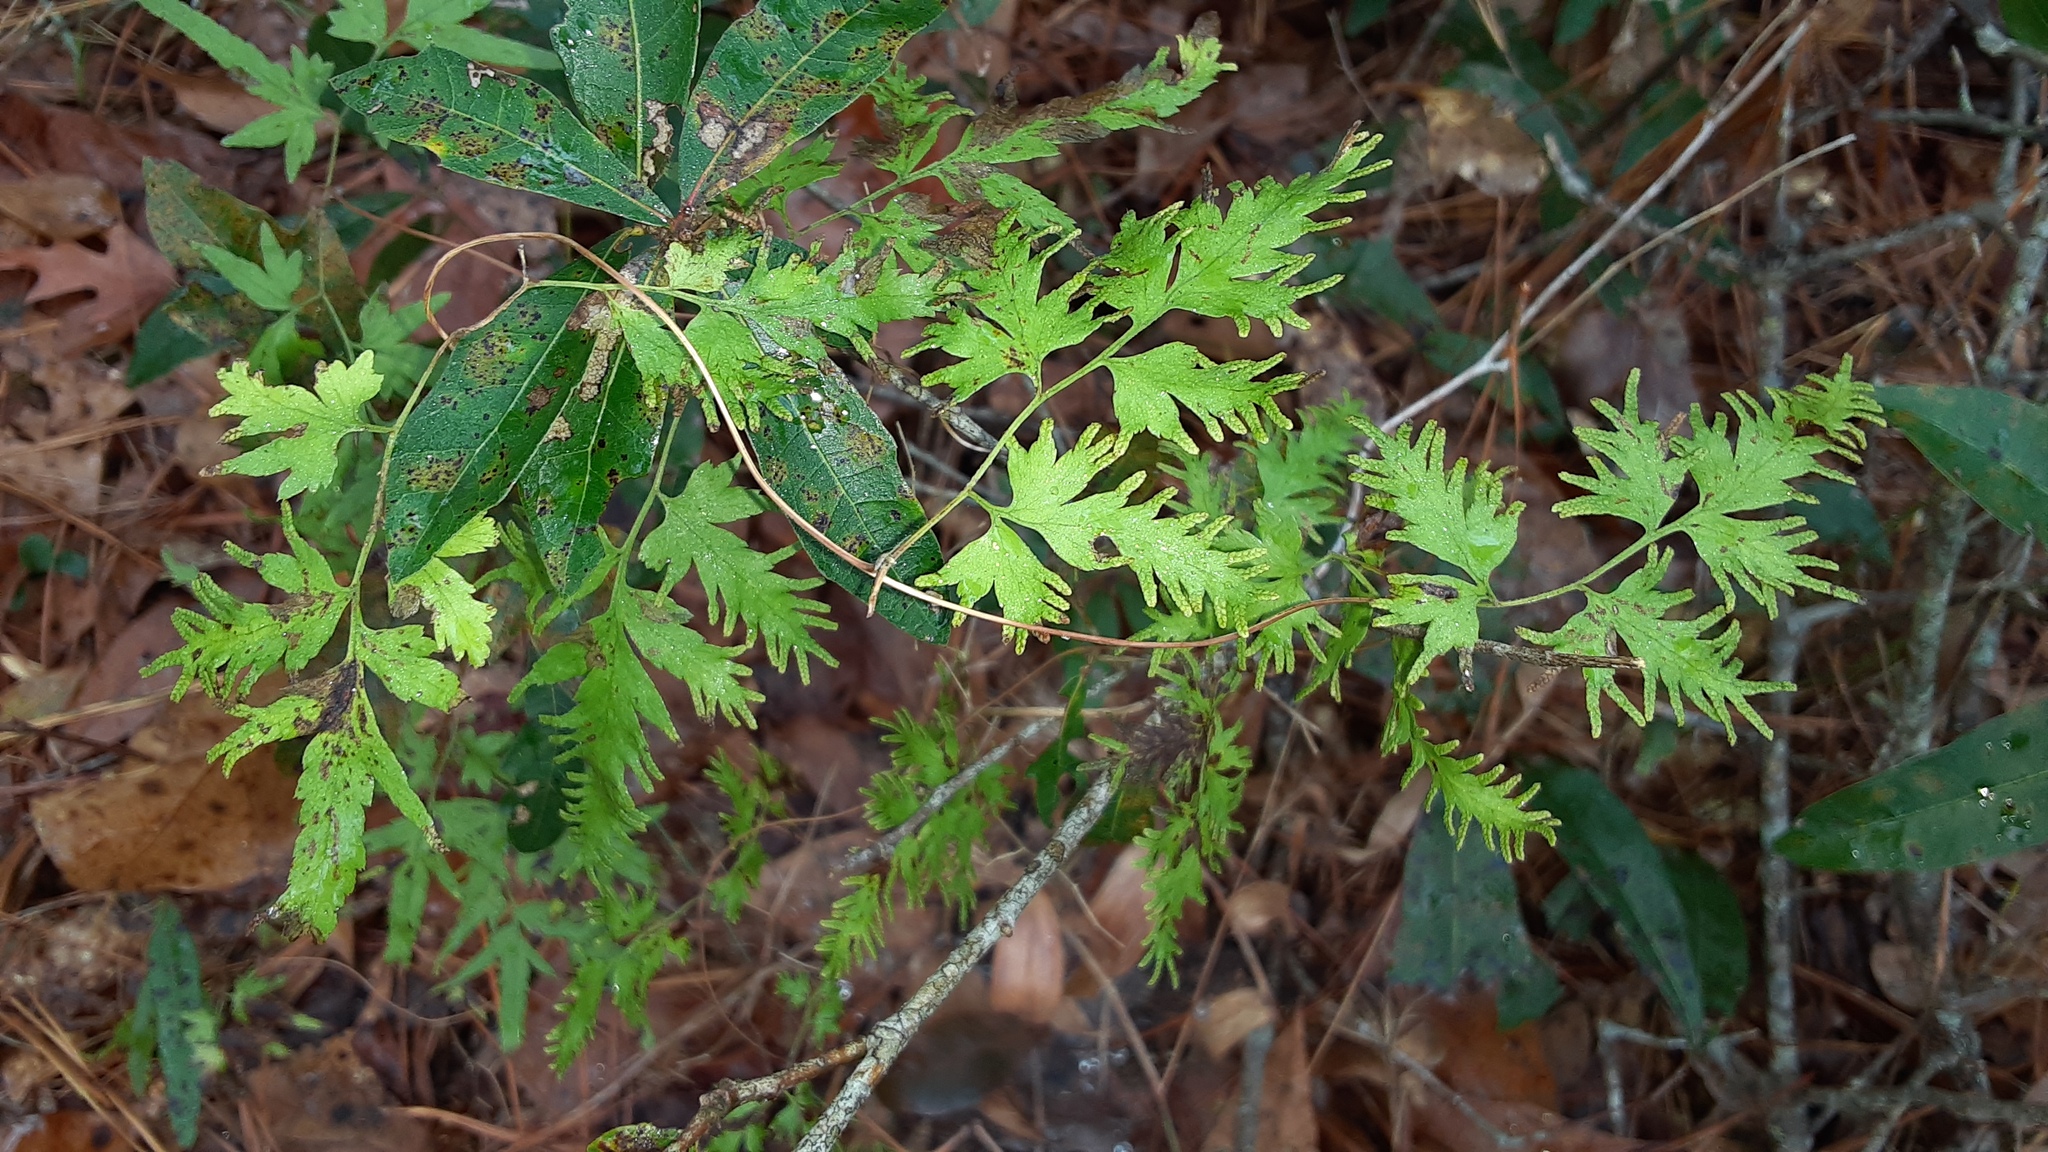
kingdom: Plantae
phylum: Tracheophyta
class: Polypodiopsida
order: Schizaeales
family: Lygodiaceae
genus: Lygodium
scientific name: Lygodium japonicum
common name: Japanese climbing fern
